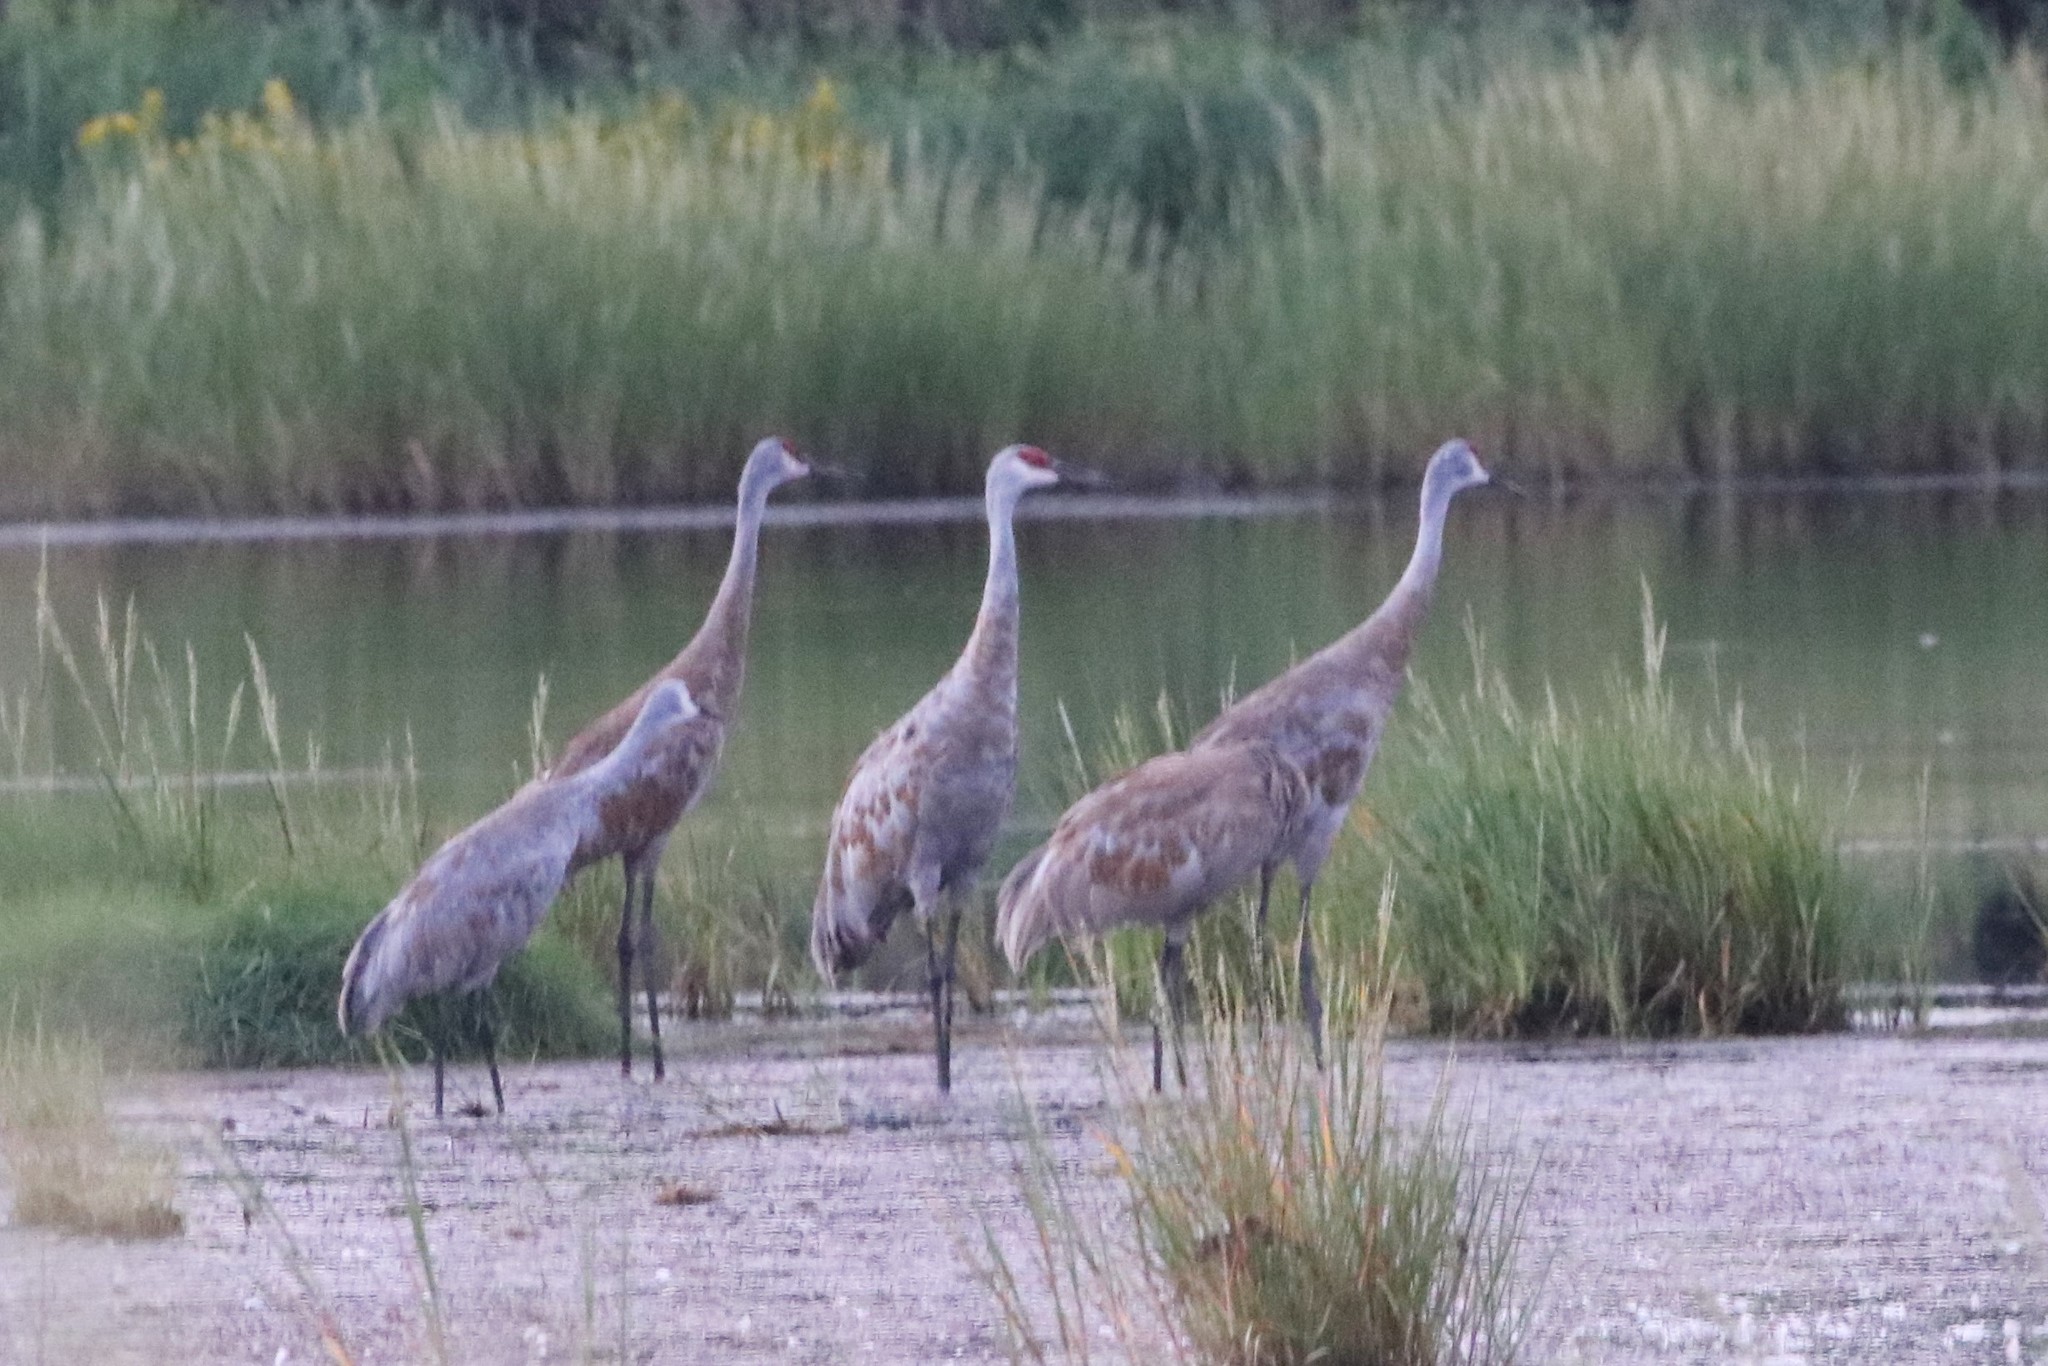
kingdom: Animalia
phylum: Chordata
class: Aves
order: Gruiformes
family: Gruidae
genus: Grus
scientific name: Grus canadensis
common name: Sandhill crane
